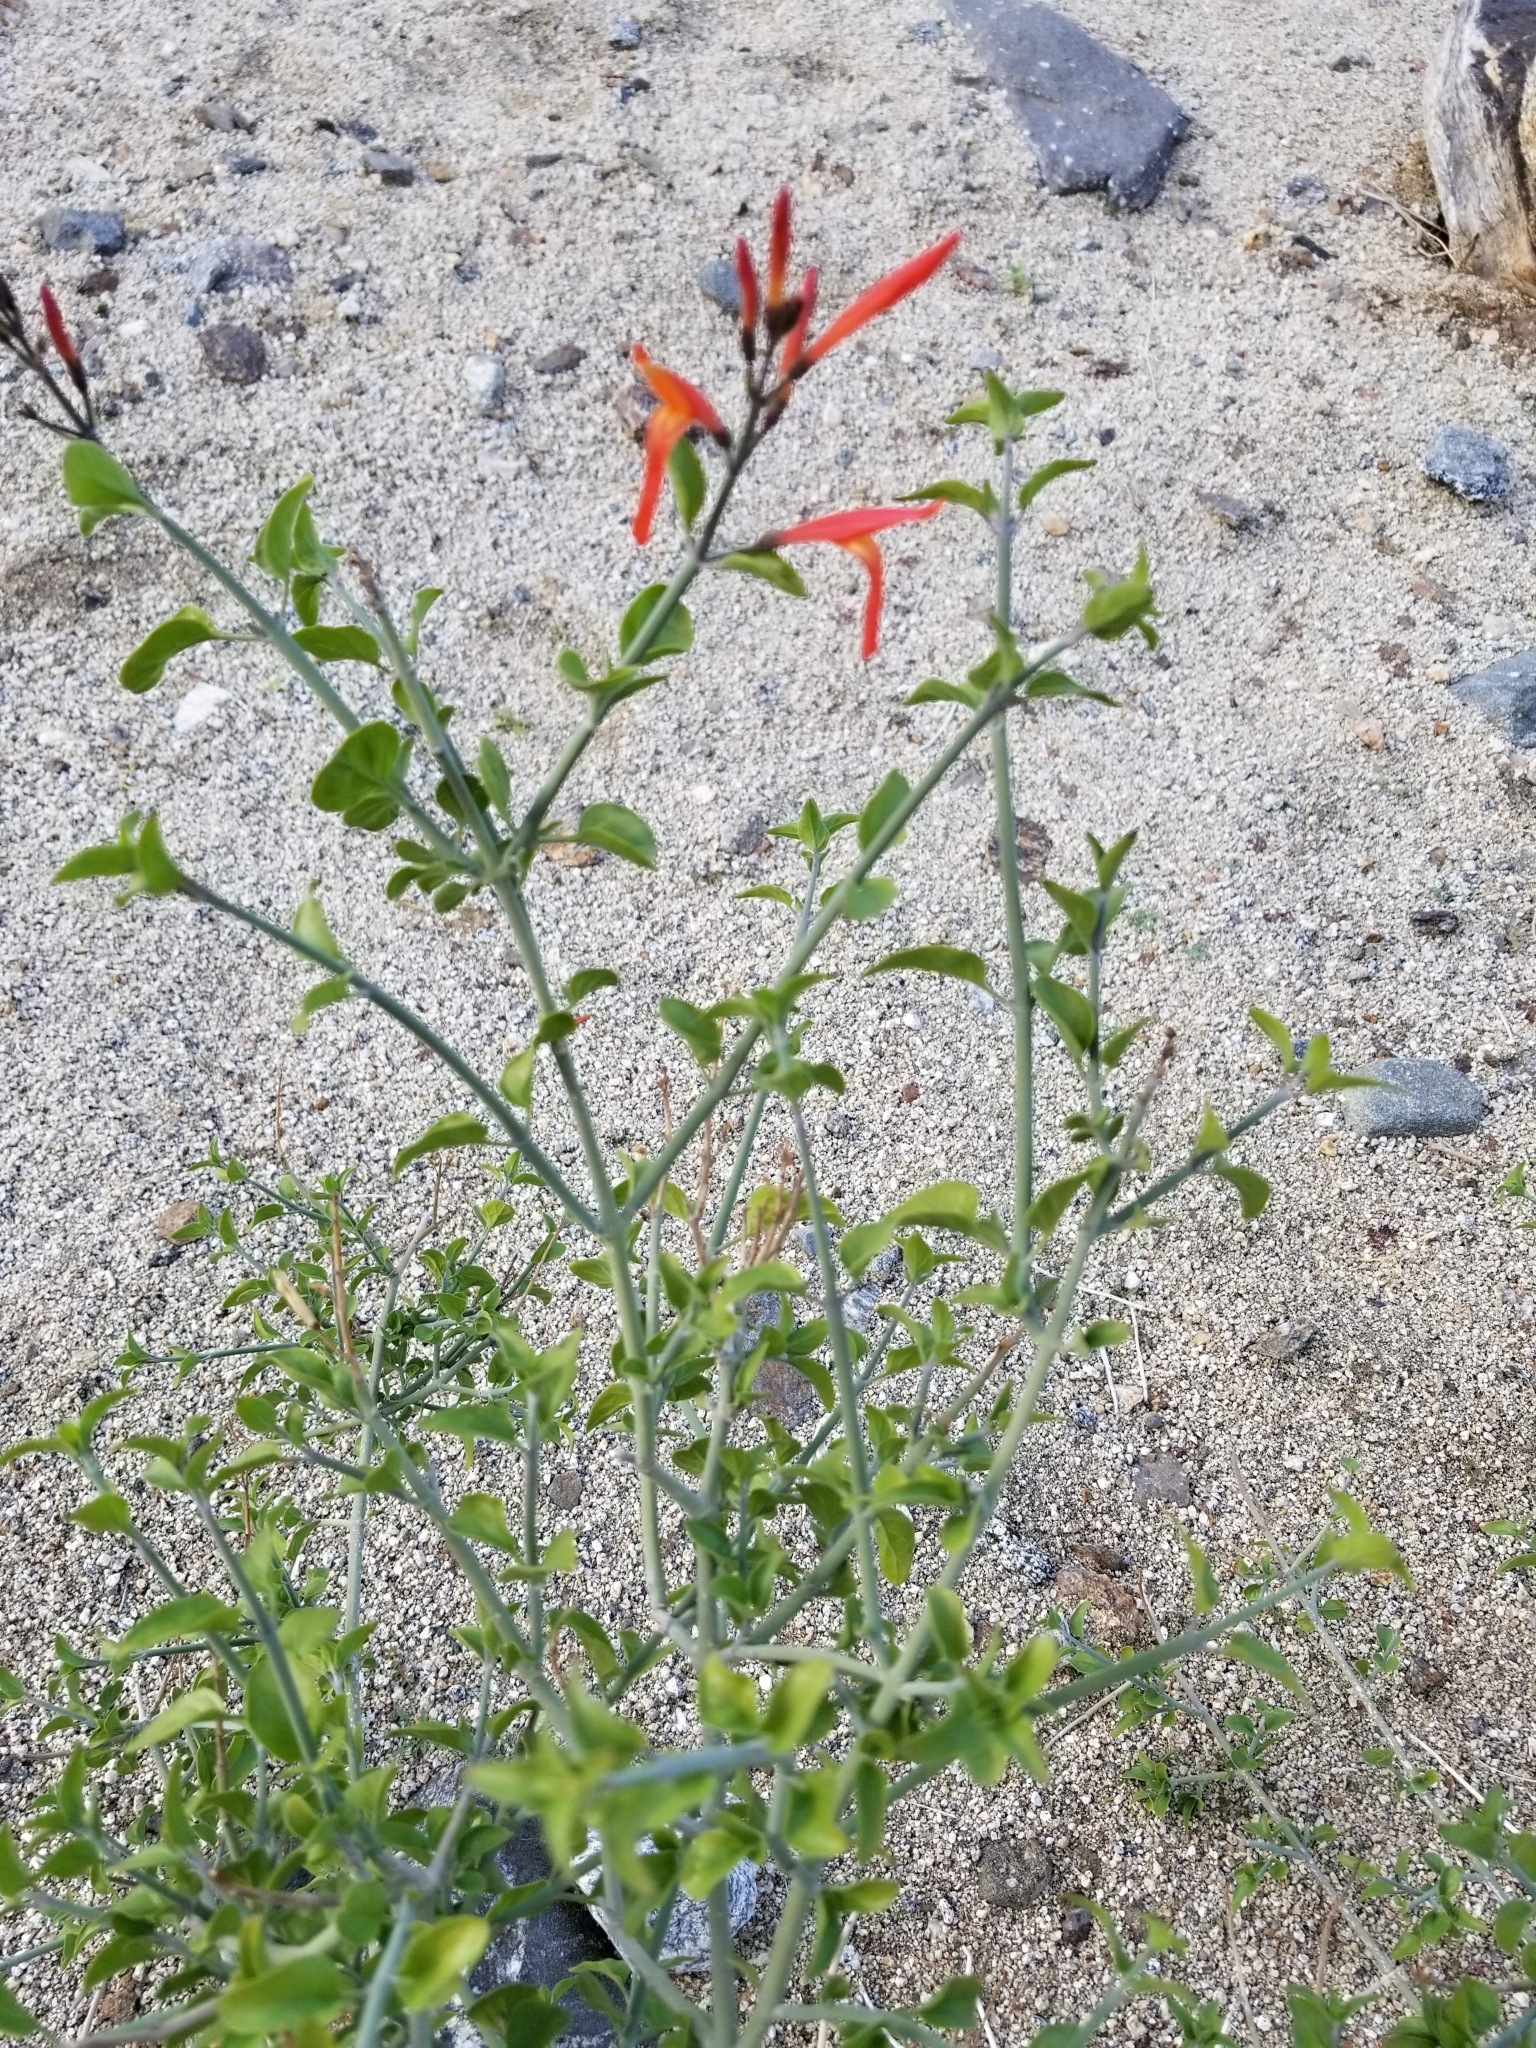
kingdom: Plantae
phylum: Tracheophyta
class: Magnoliopsida
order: Lamiales
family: Acanthaceae
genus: Justicia
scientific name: Justicia californica
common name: Chuparosa-honeysuckle
